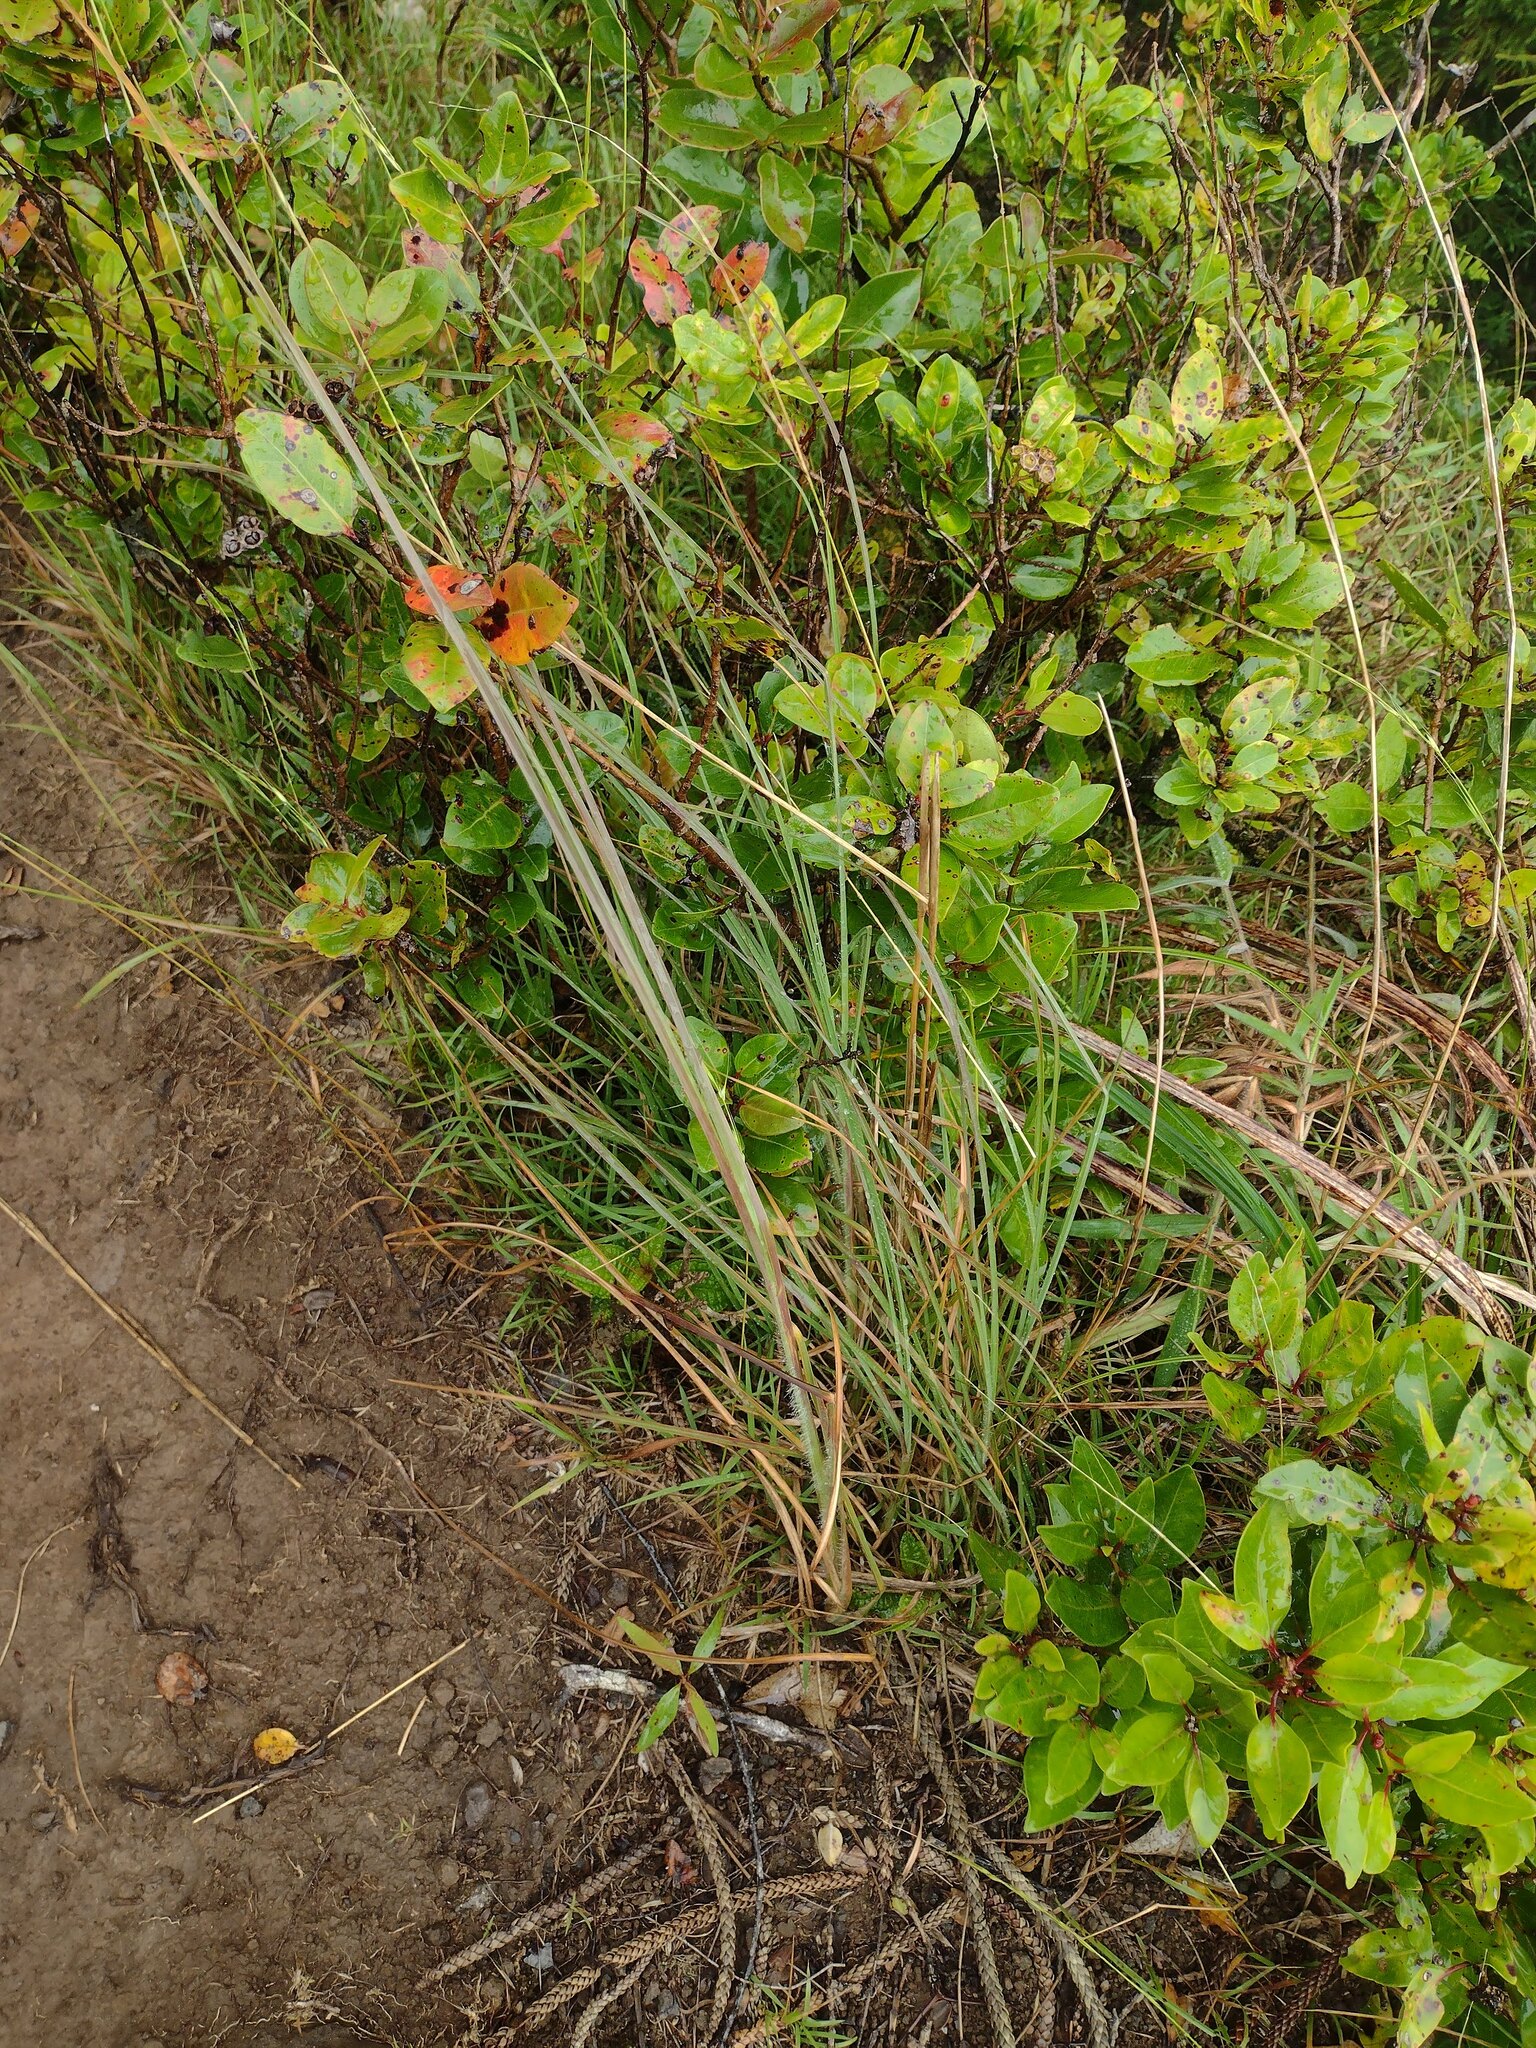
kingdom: Plantae
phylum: Tracheophyta
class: Liliopsida
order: Poales
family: Poaceae
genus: Andropogon
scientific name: Andropogon virginicus
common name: Broomsedge bluestem
